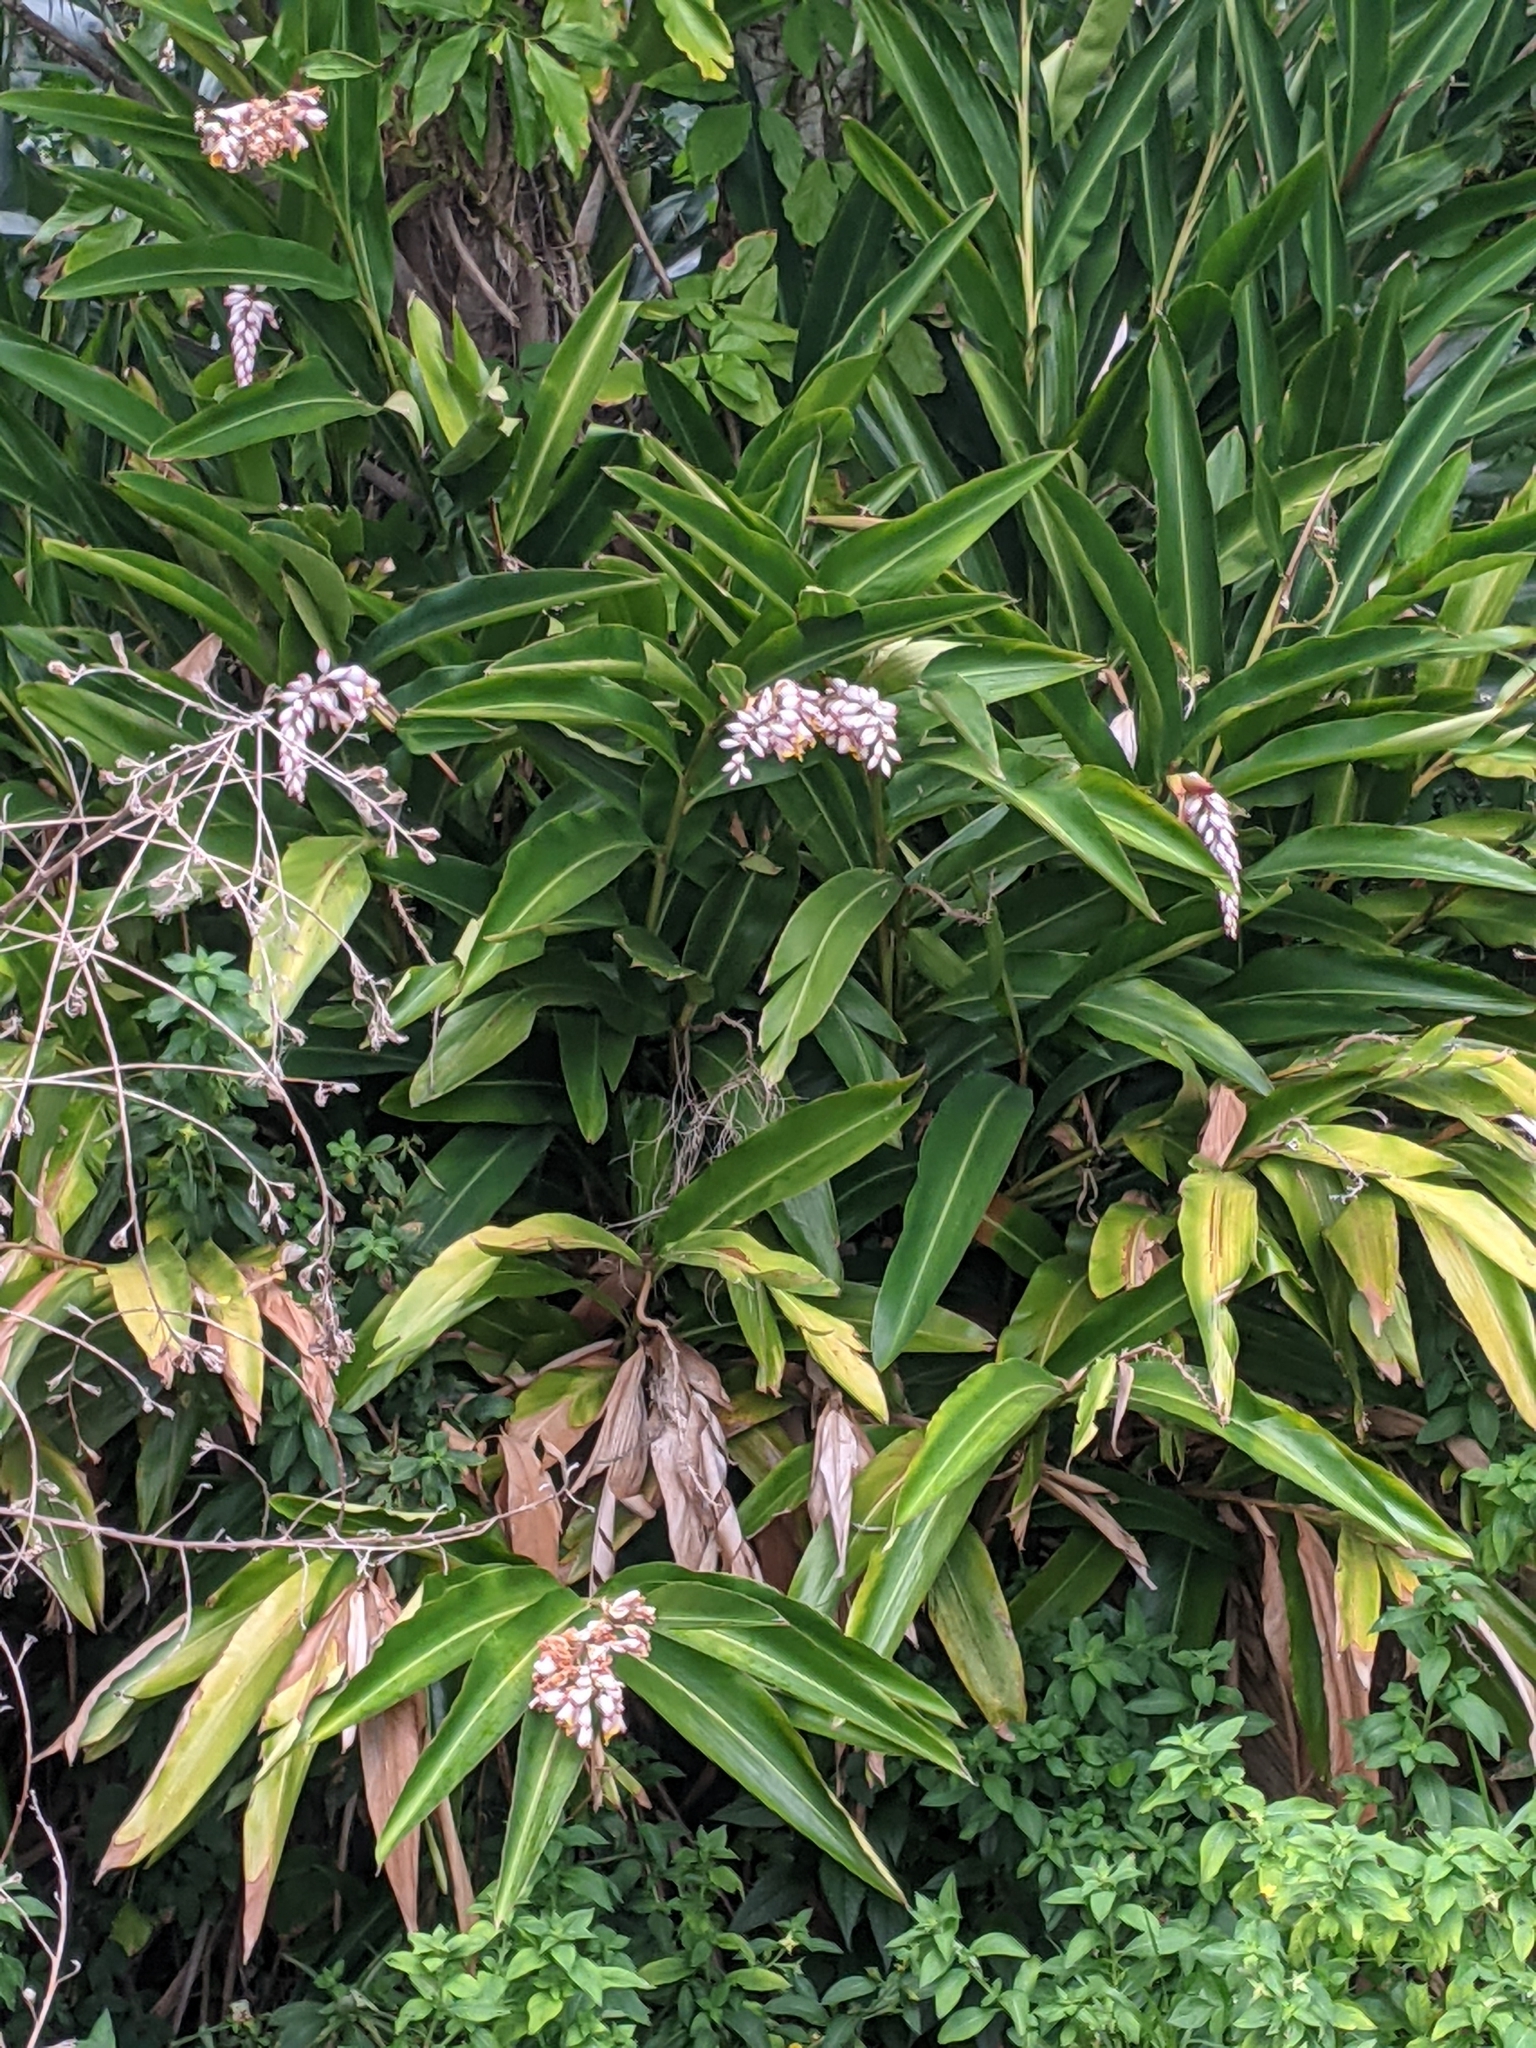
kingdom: Plantae
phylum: Tracheophyta
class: Liliopsida
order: Zingiberales
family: Zingiberaceae
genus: Alpinia
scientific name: Alpinia zerumbet
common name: Shellplant
